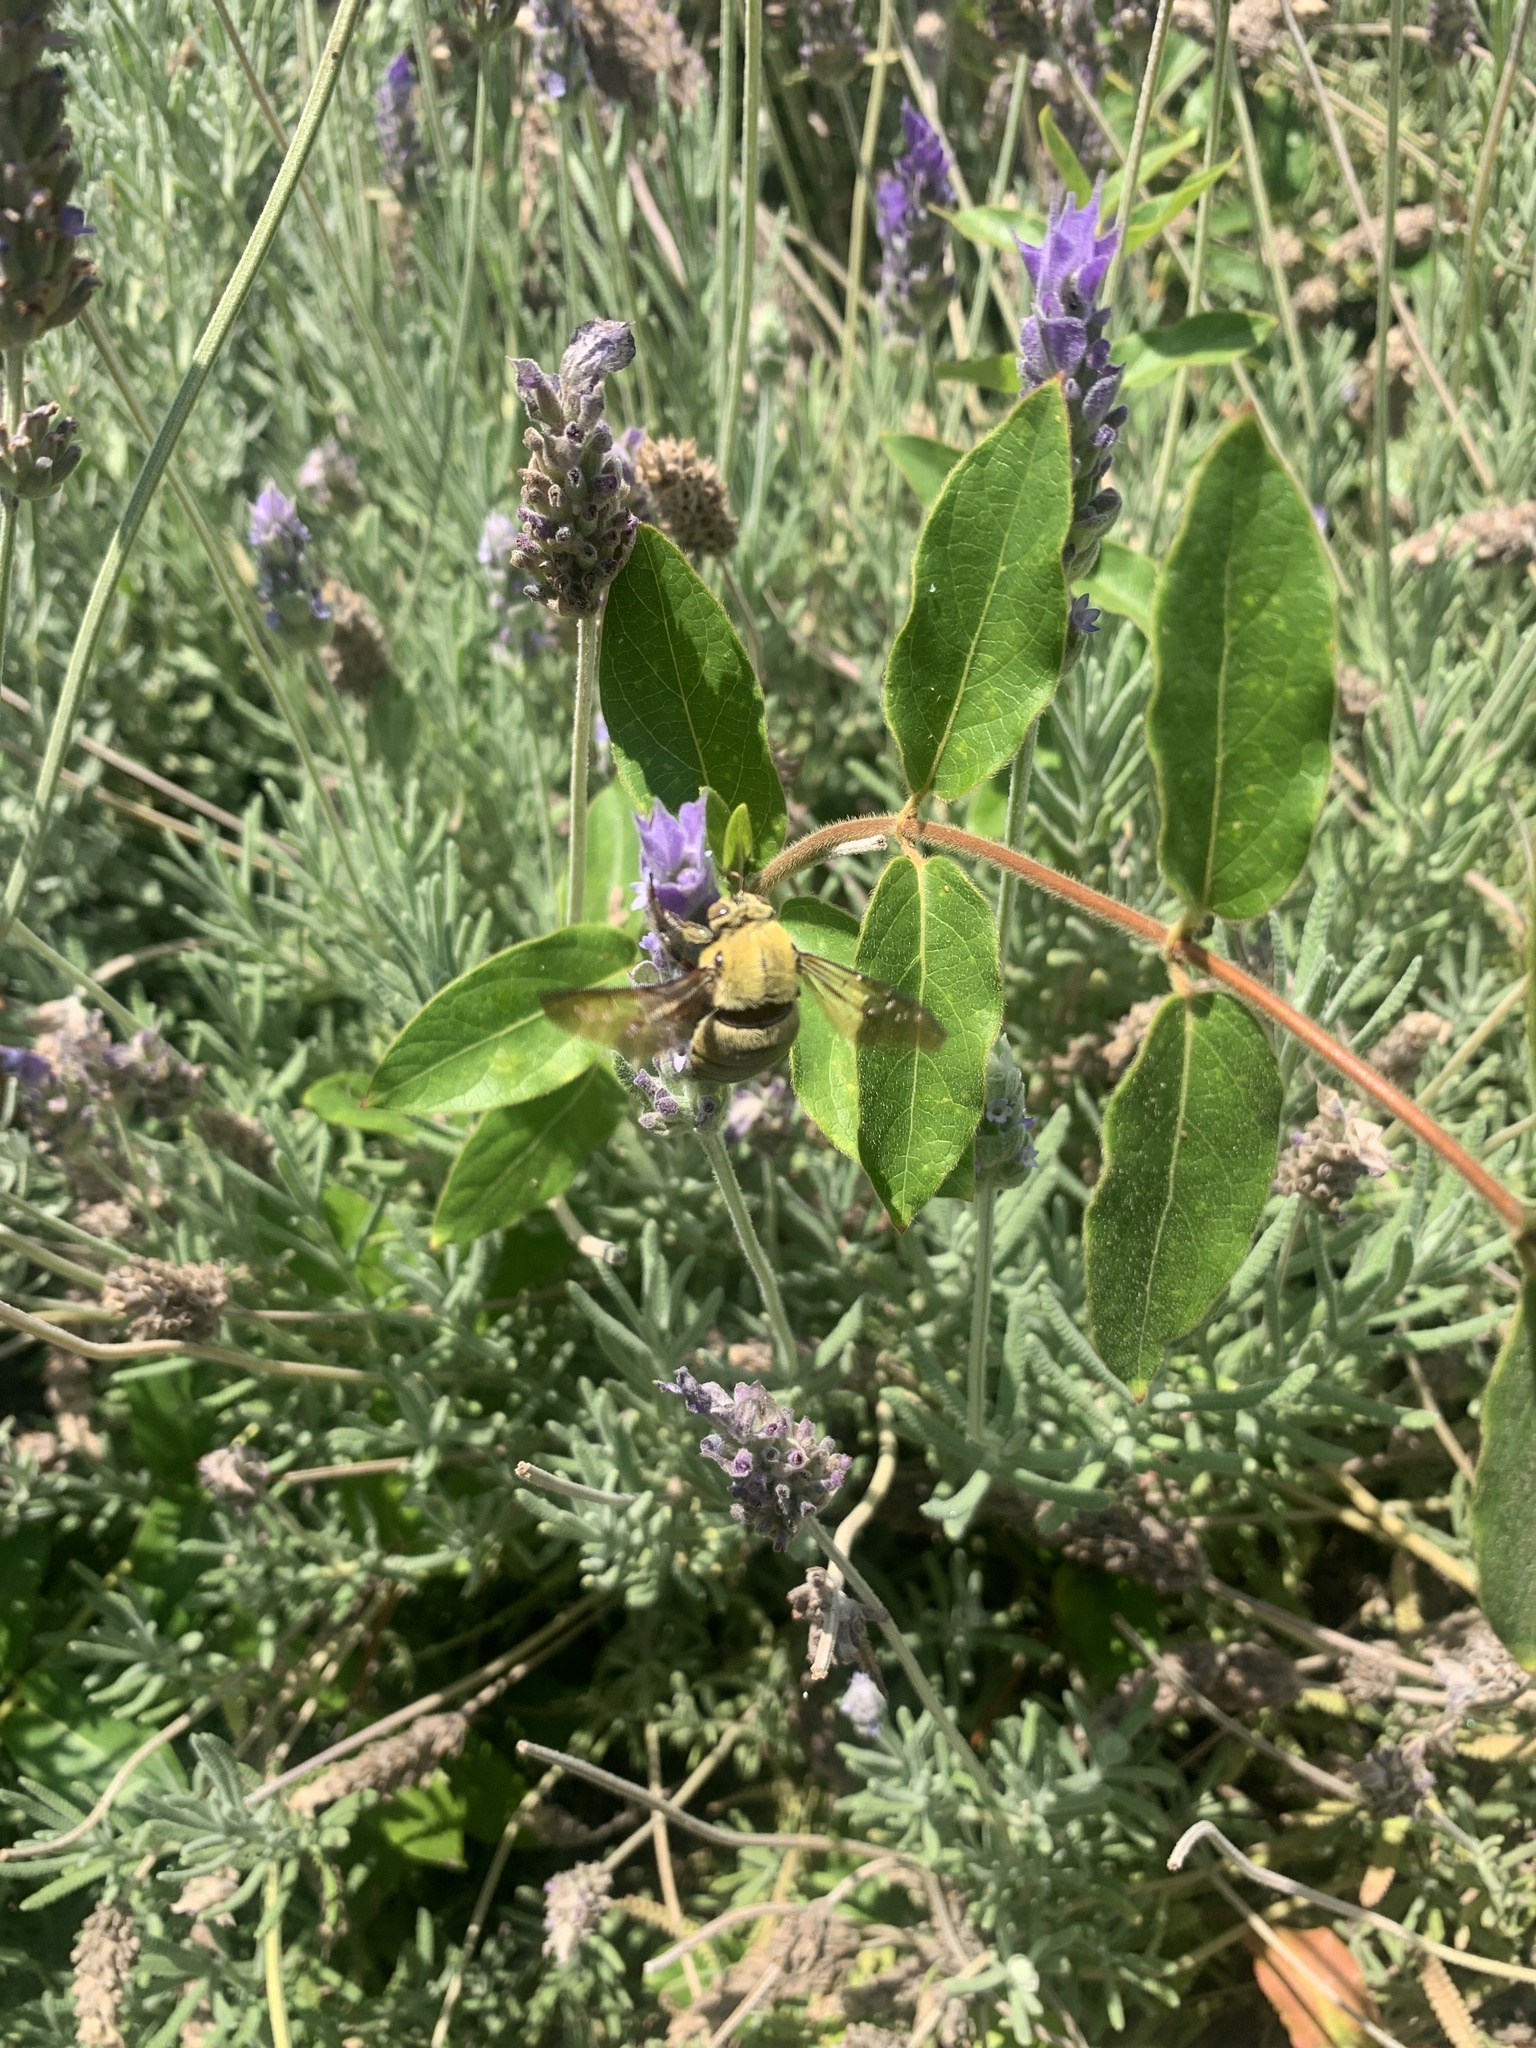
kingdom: Animalia
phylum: Arthropoda
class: Insecta
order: Hymenoptera
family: Apidae
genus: Xylocopa
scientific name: Xylocopa pubescens
